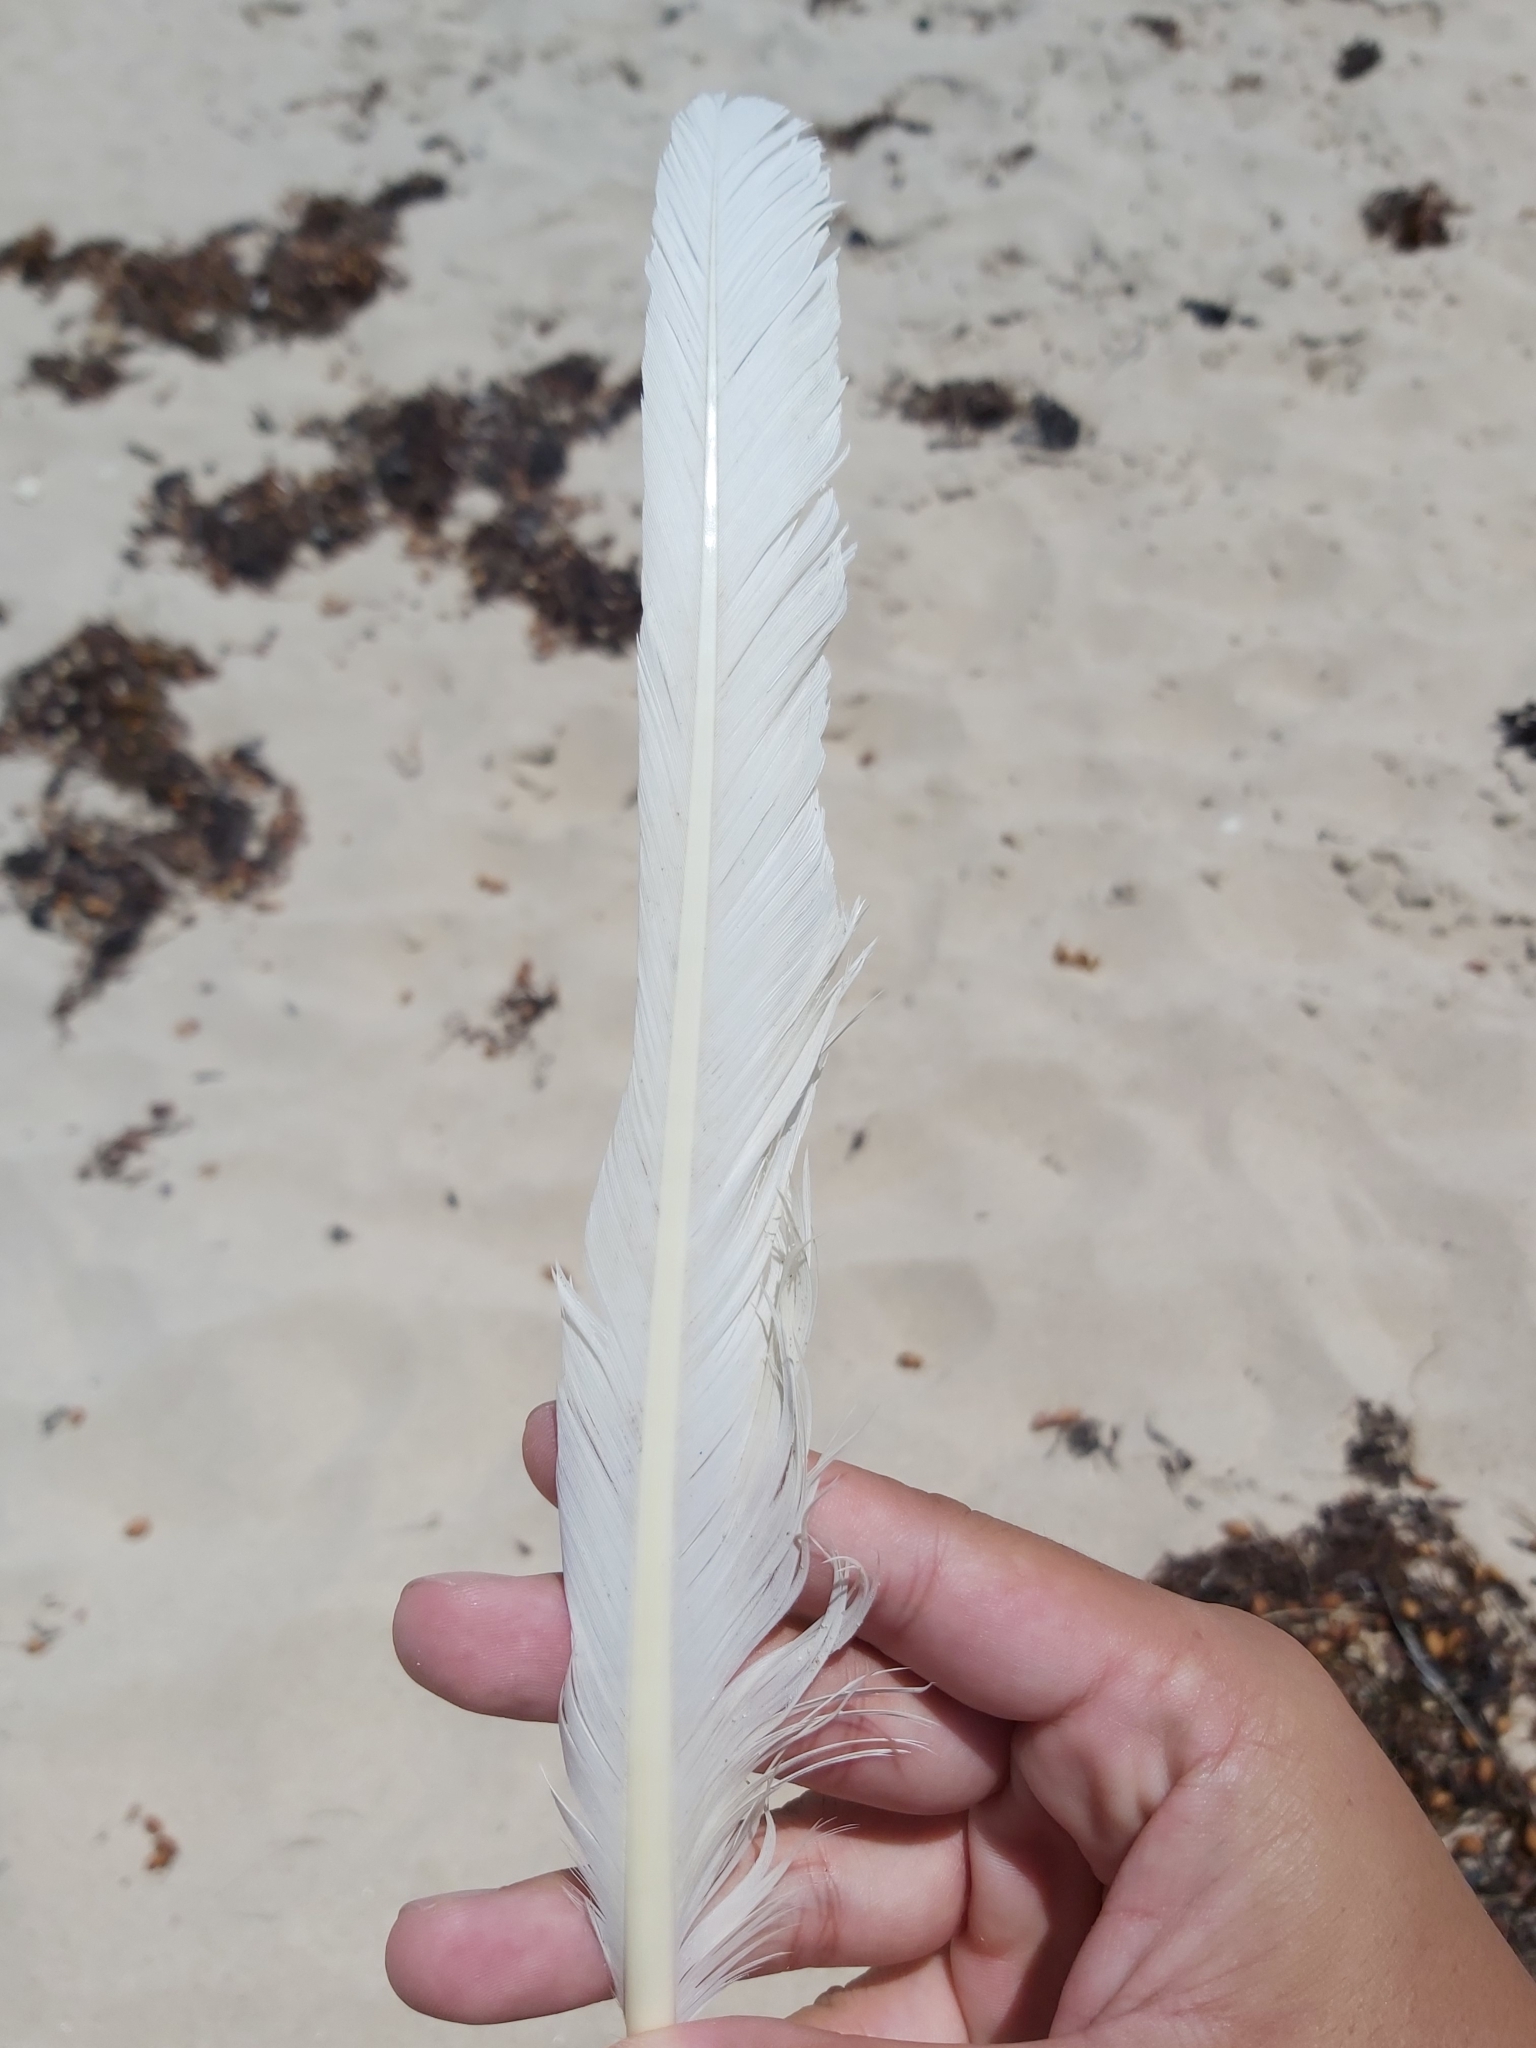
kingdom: Animalia
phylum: Chordata
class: Aves
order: Anseriformes
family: Anatidae
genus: Cygnus
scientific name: Cygnus atratus
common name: Black swan
